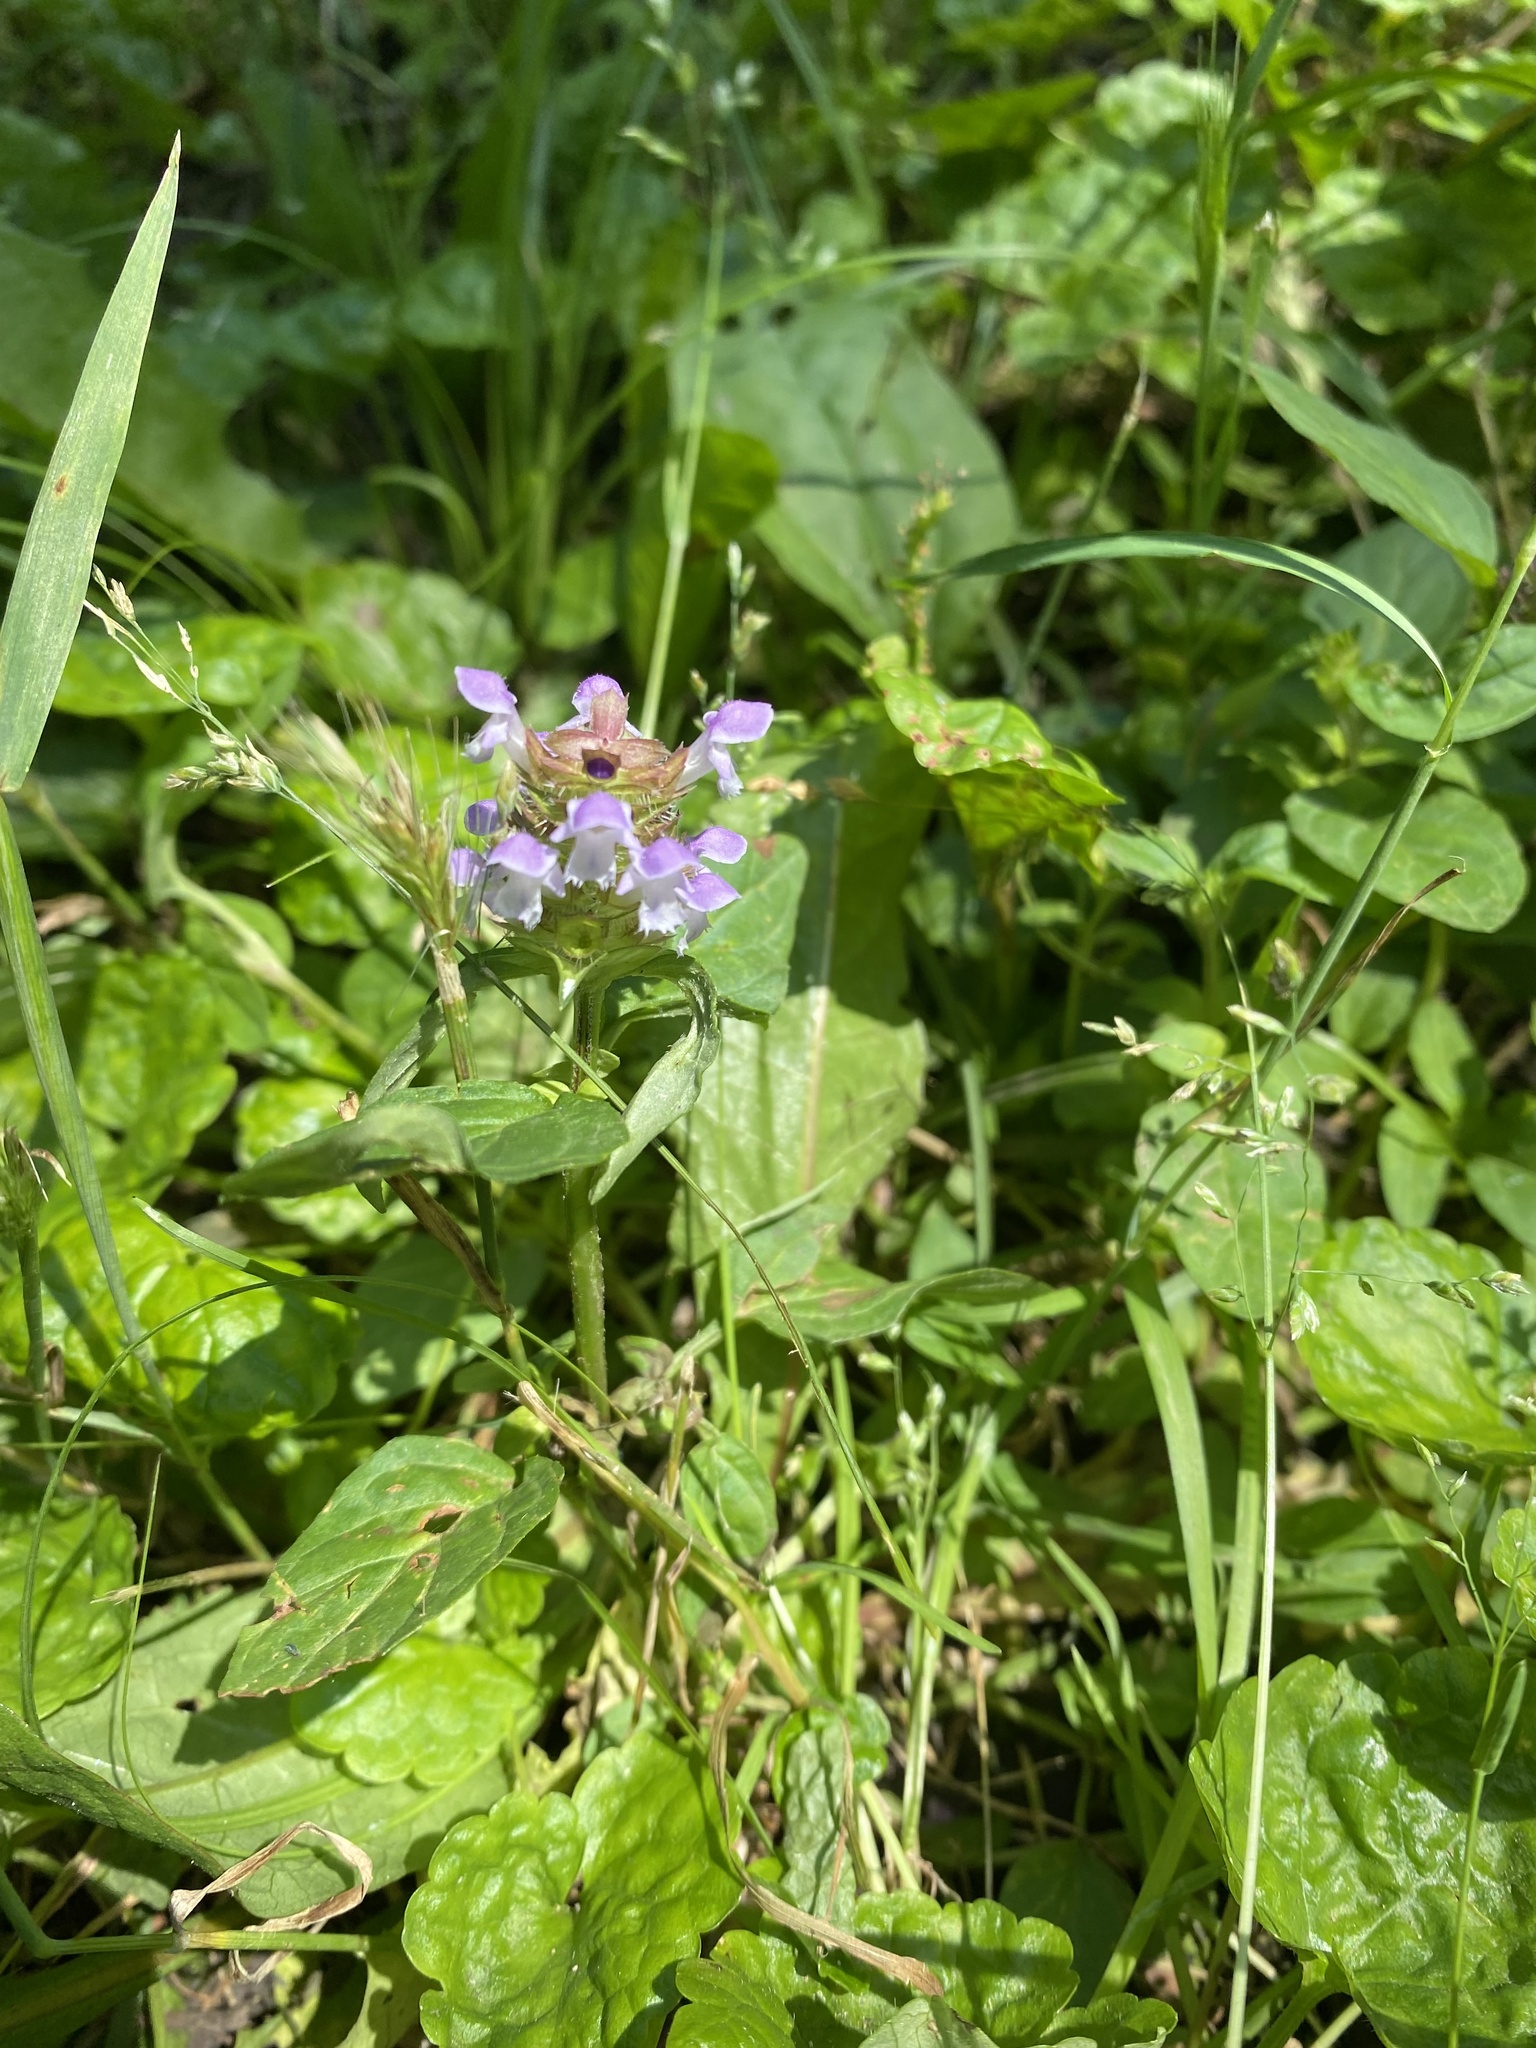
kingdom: Plantae
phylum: Tracheophyta
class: Magnoliopsida
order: Lamiales
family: Lamiaceae
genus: Prunella
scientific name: Prunella vulgaris
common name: Heal-all
